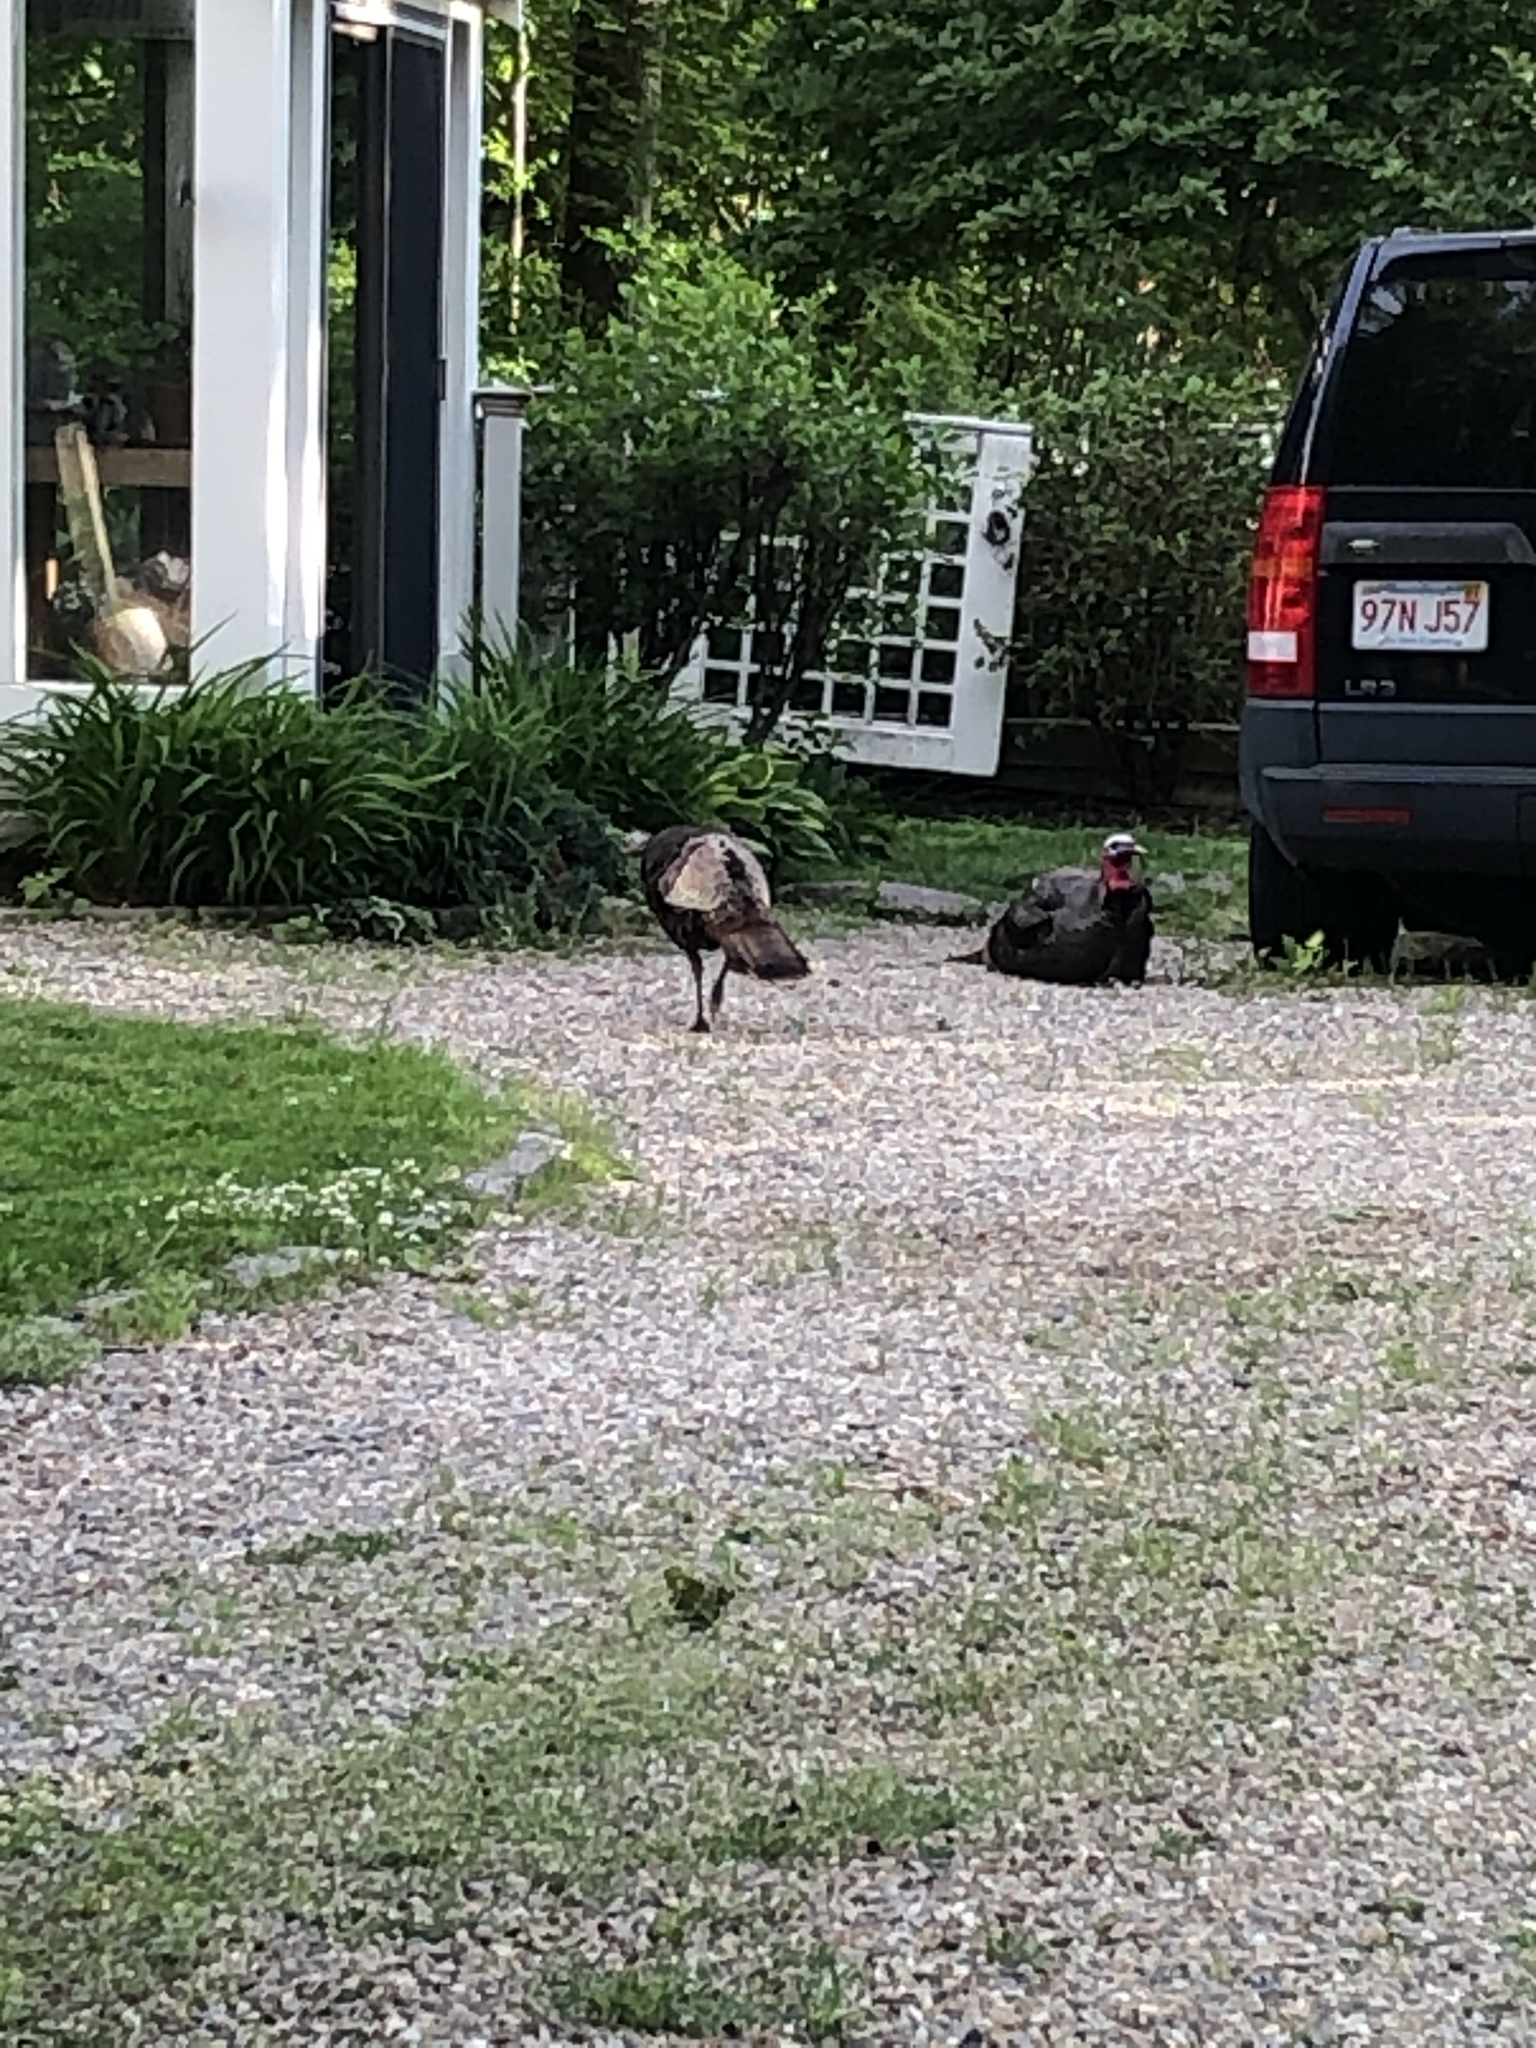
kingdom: Animalia
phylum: Chordata
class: Aves
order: Galliformes
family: Phasianidae
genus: Meleagris
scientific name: Meleagris gallopavo
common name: Wild turkey
